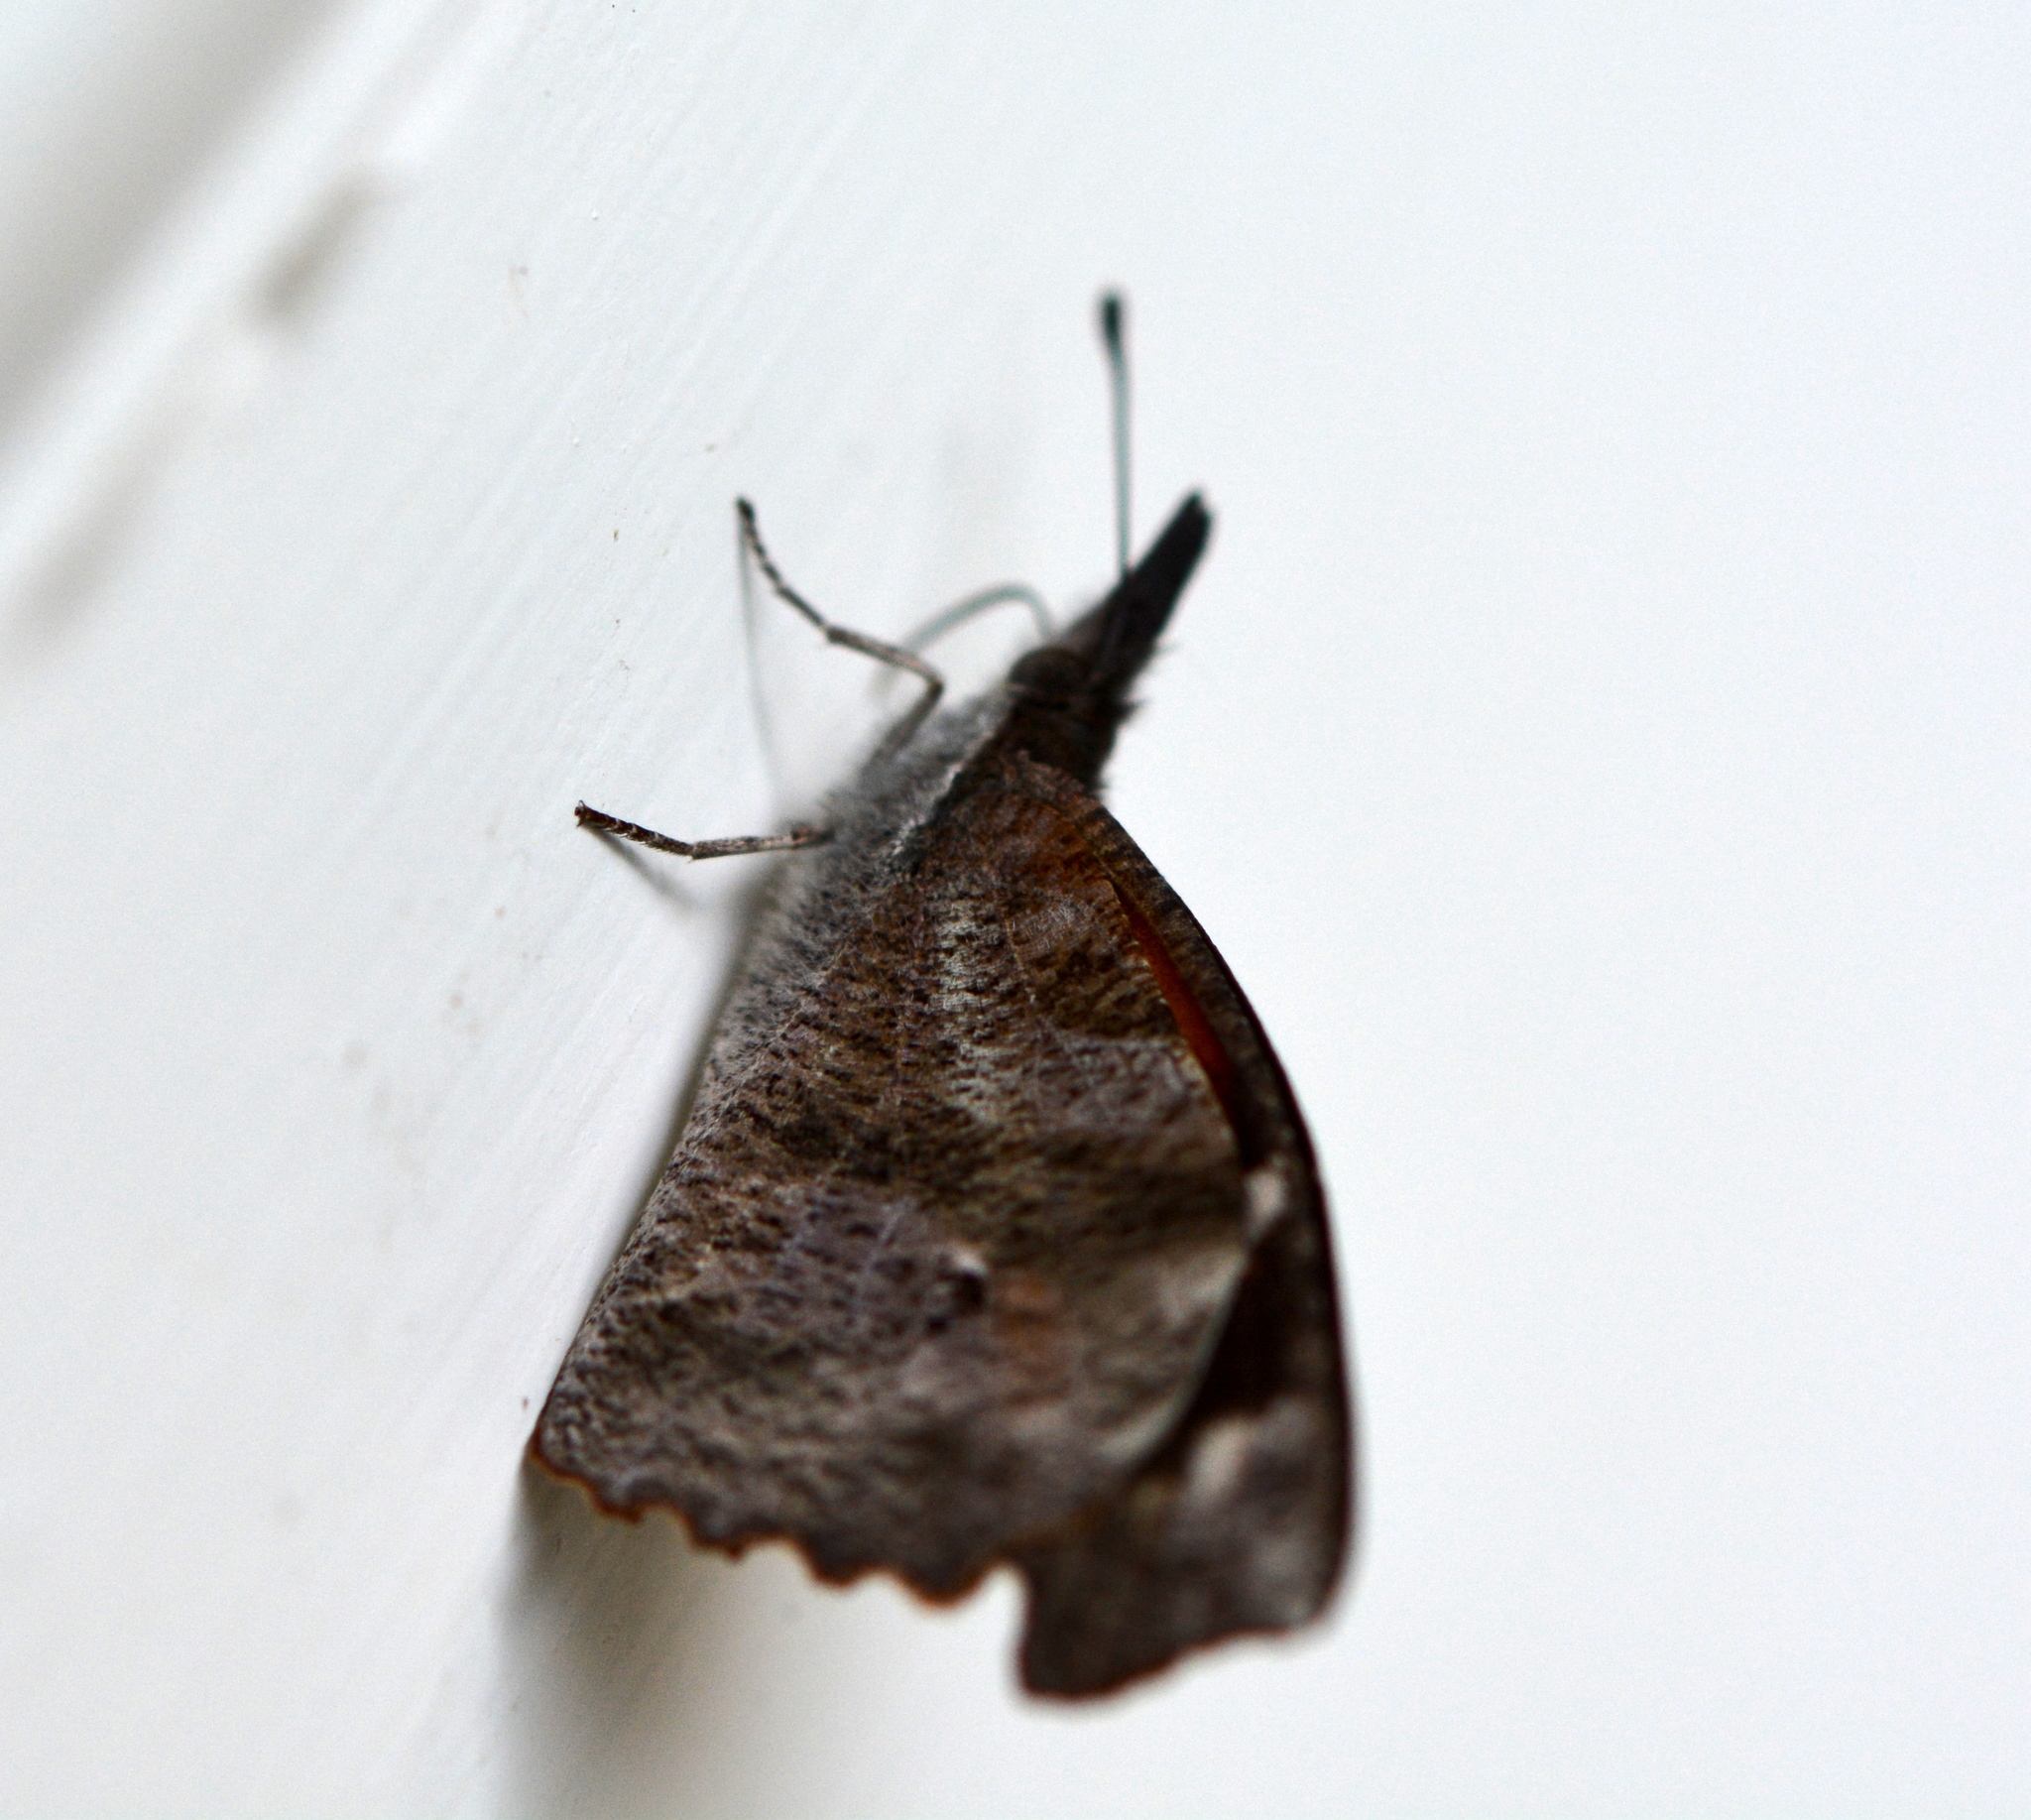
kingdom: Animalia
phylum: Arthropoda
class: Insecta
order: Lepidoptera
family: Nymphalidae
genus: Libytheana
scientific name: Libytheana carinenta
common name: American snout
